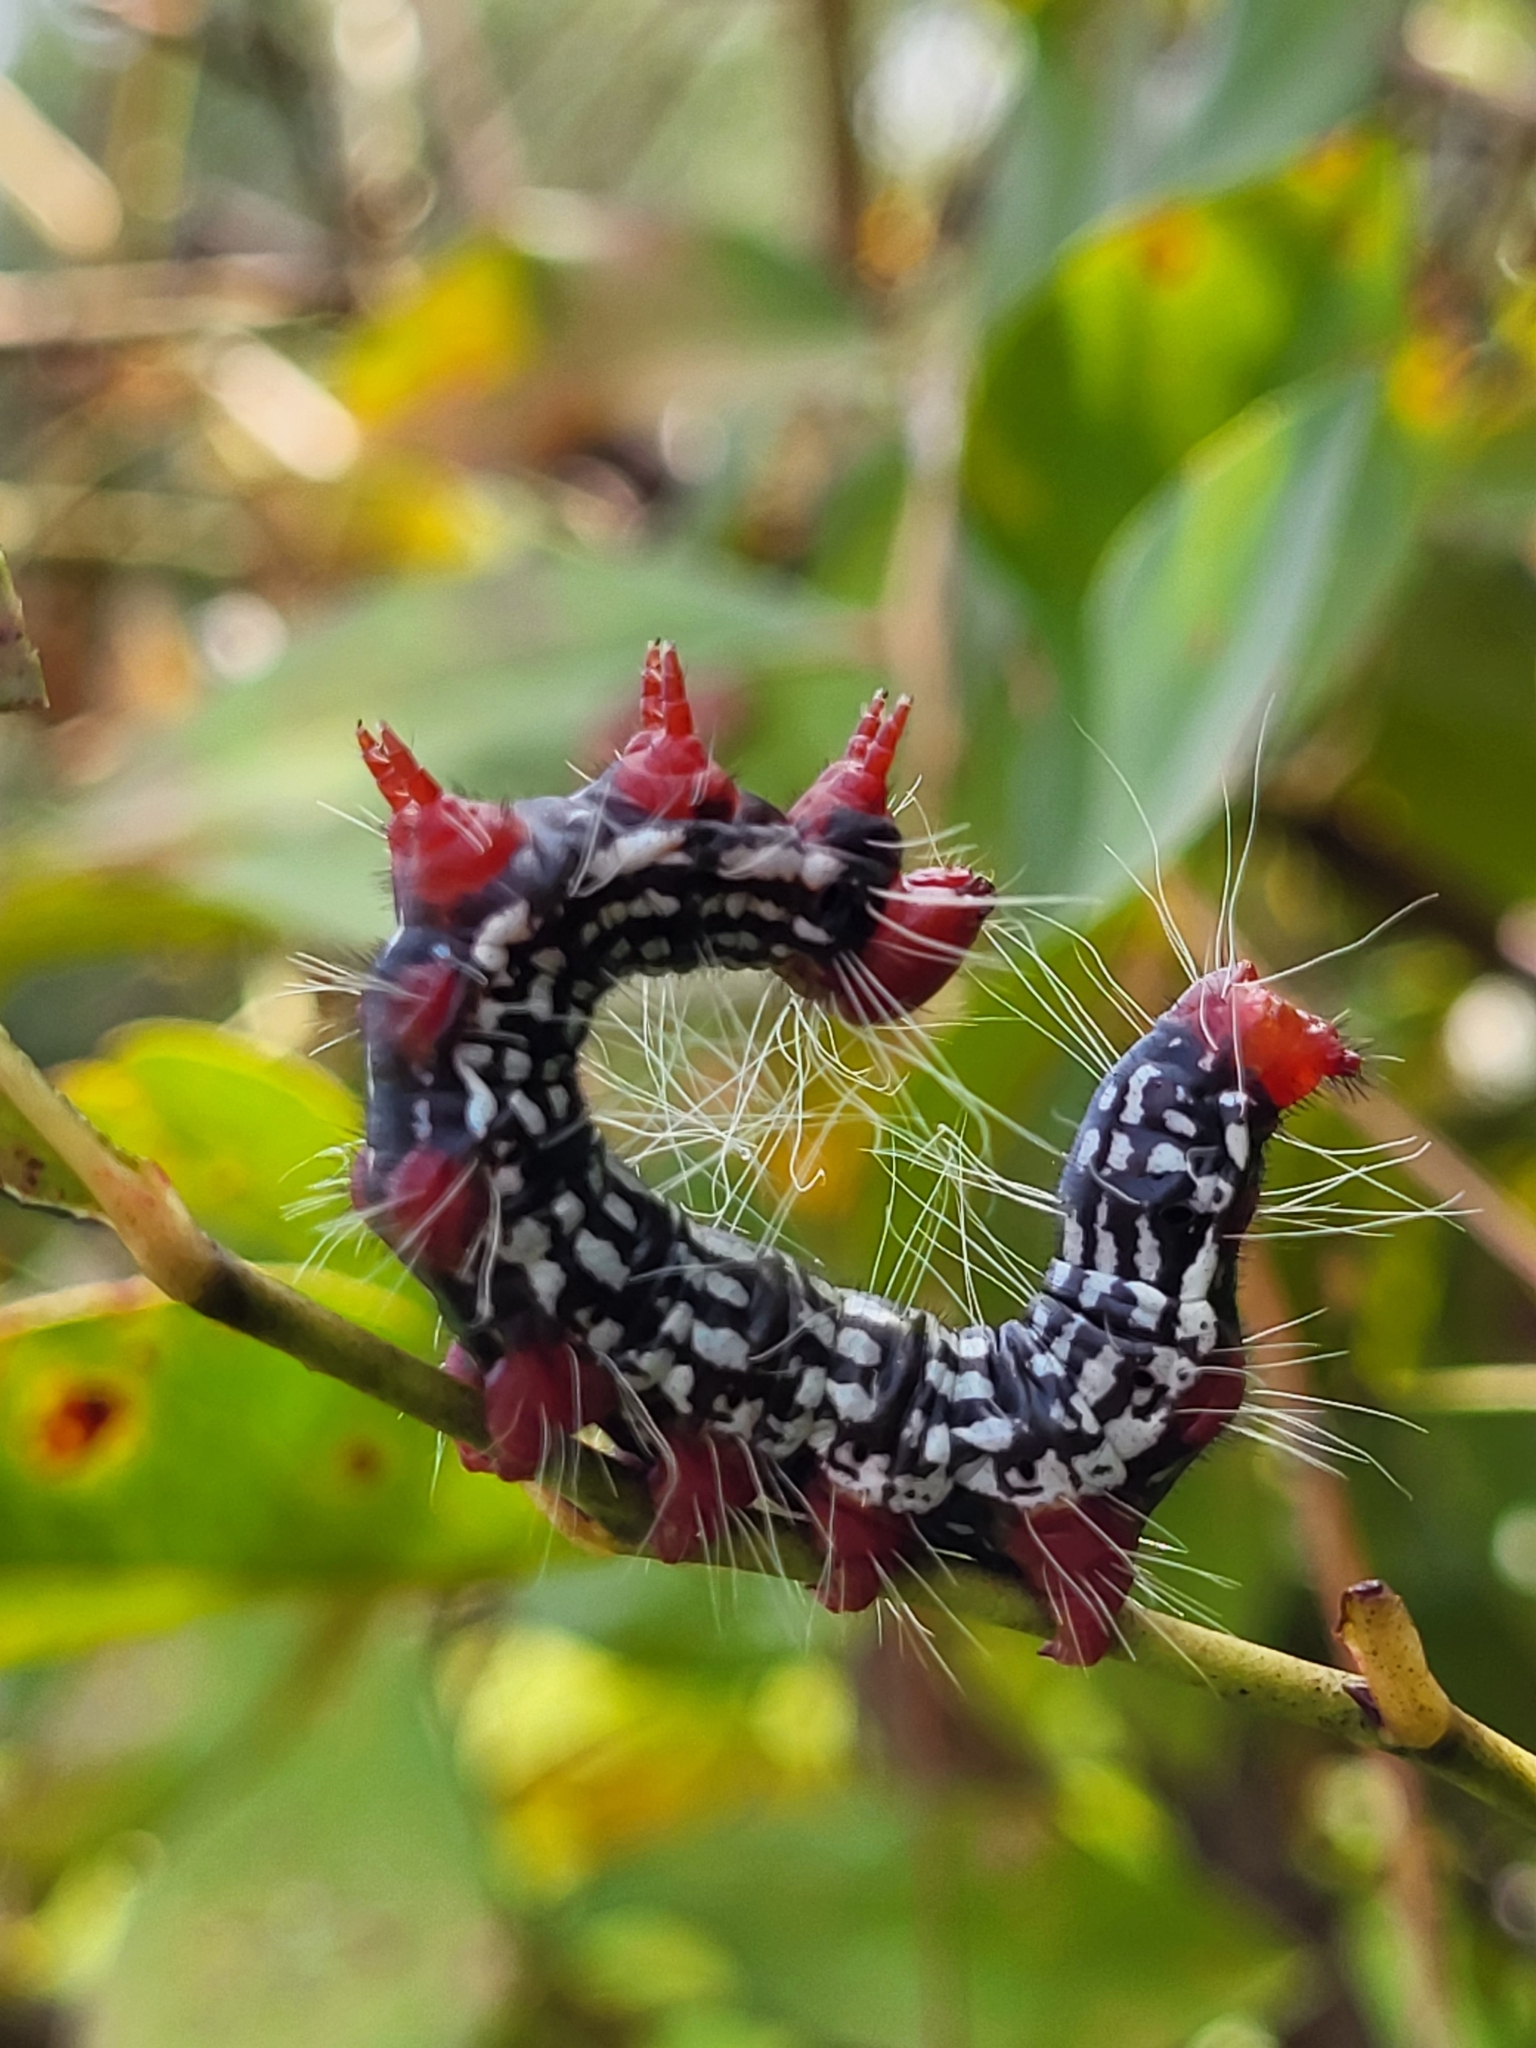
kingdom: Animalia
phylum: Arthropoda
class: Insecta
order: Lepidoptera
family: Notodontidae
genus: Datana
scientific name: Datana major
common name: Azalea caterpillar
